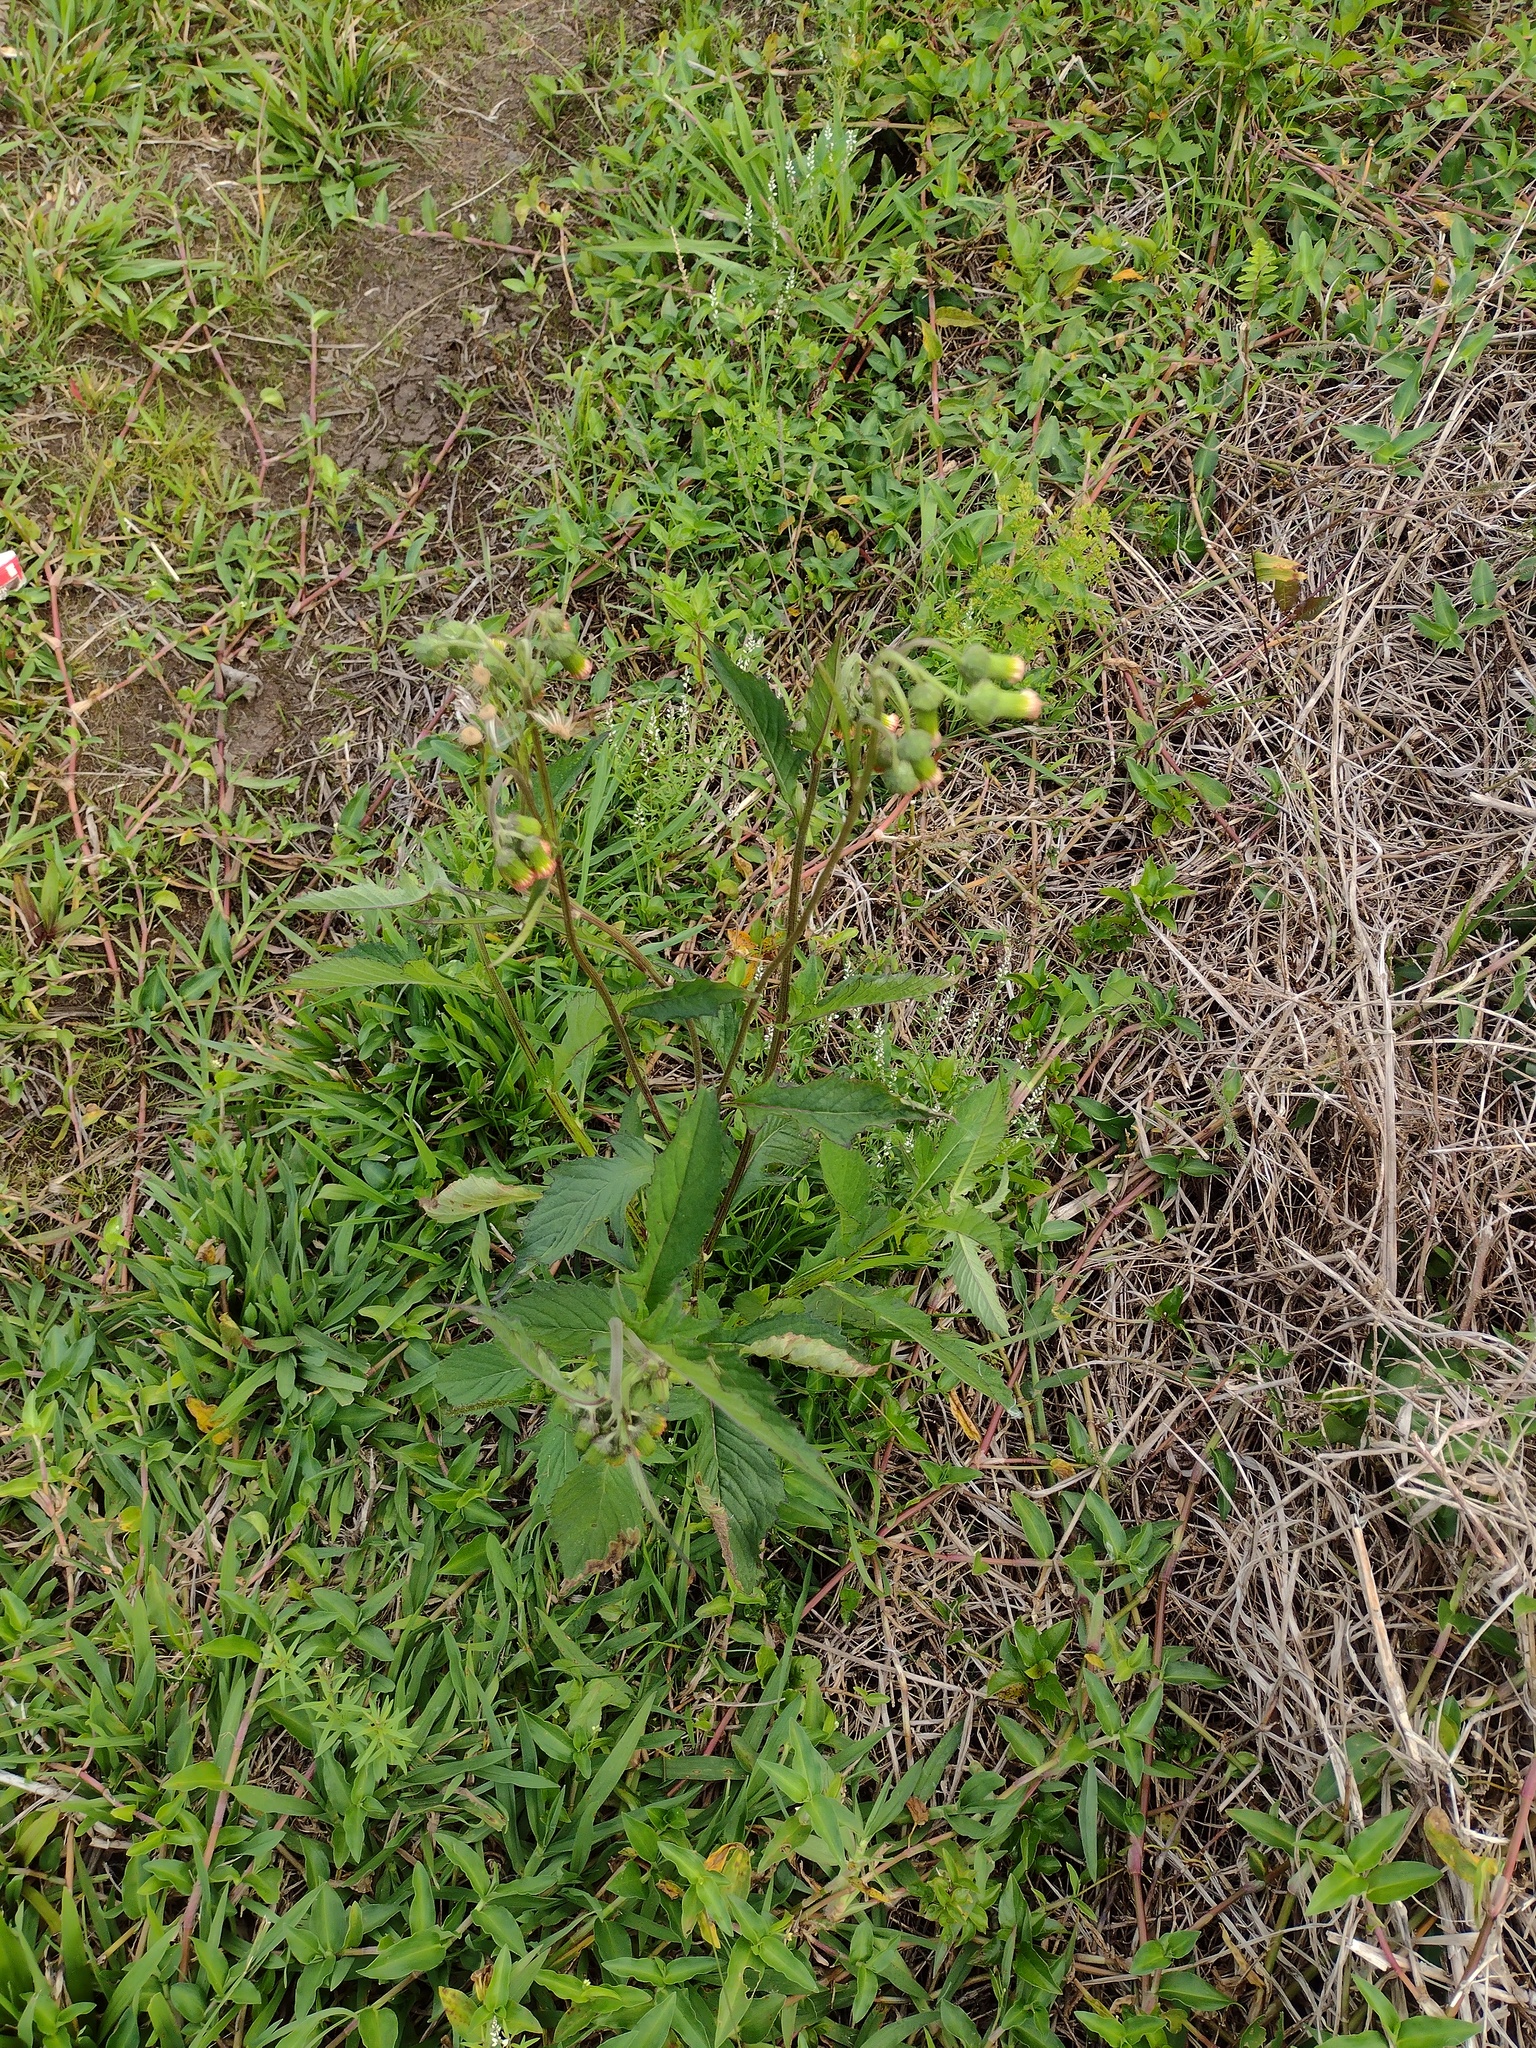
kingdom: Plantae
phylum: Tracheophyta
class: Magnoliopsida
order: Asterales
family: Asteraceae
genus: Crassocephalum
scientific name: Crassocephalum crepidioides
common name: Redflower ragleaf
